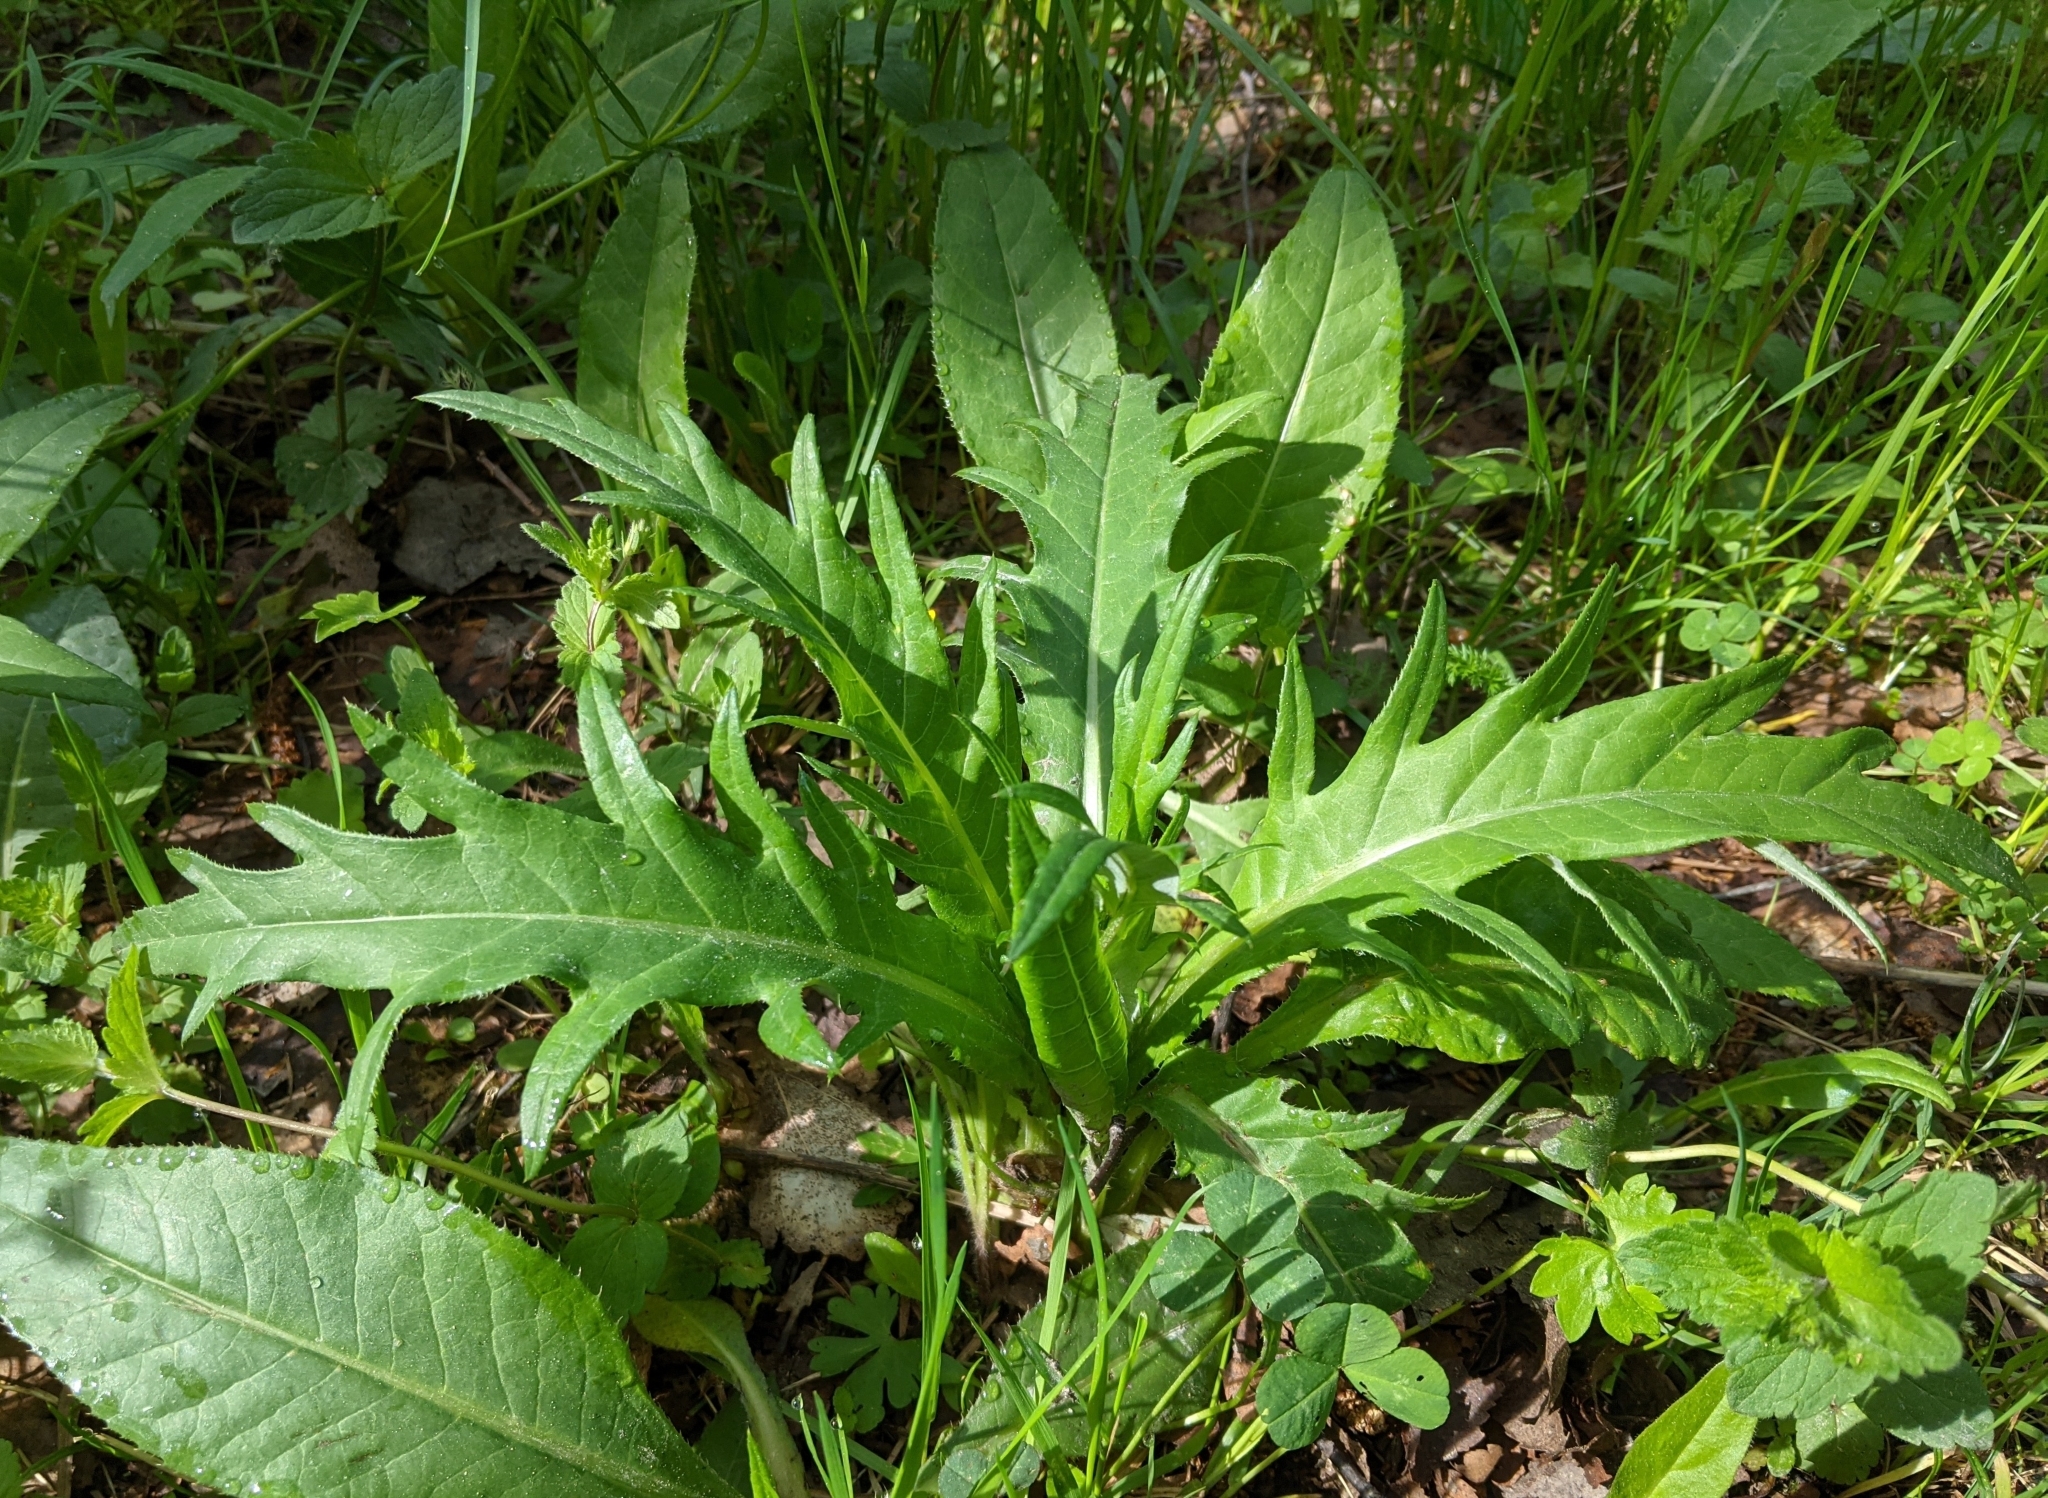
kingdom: Plantae
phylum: Tracheophyta
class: Magnoliopsida
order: Asterales
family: Asteraceae
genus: Cirsium
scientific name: Cirsium oleraceum
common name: Cabbage thistle
